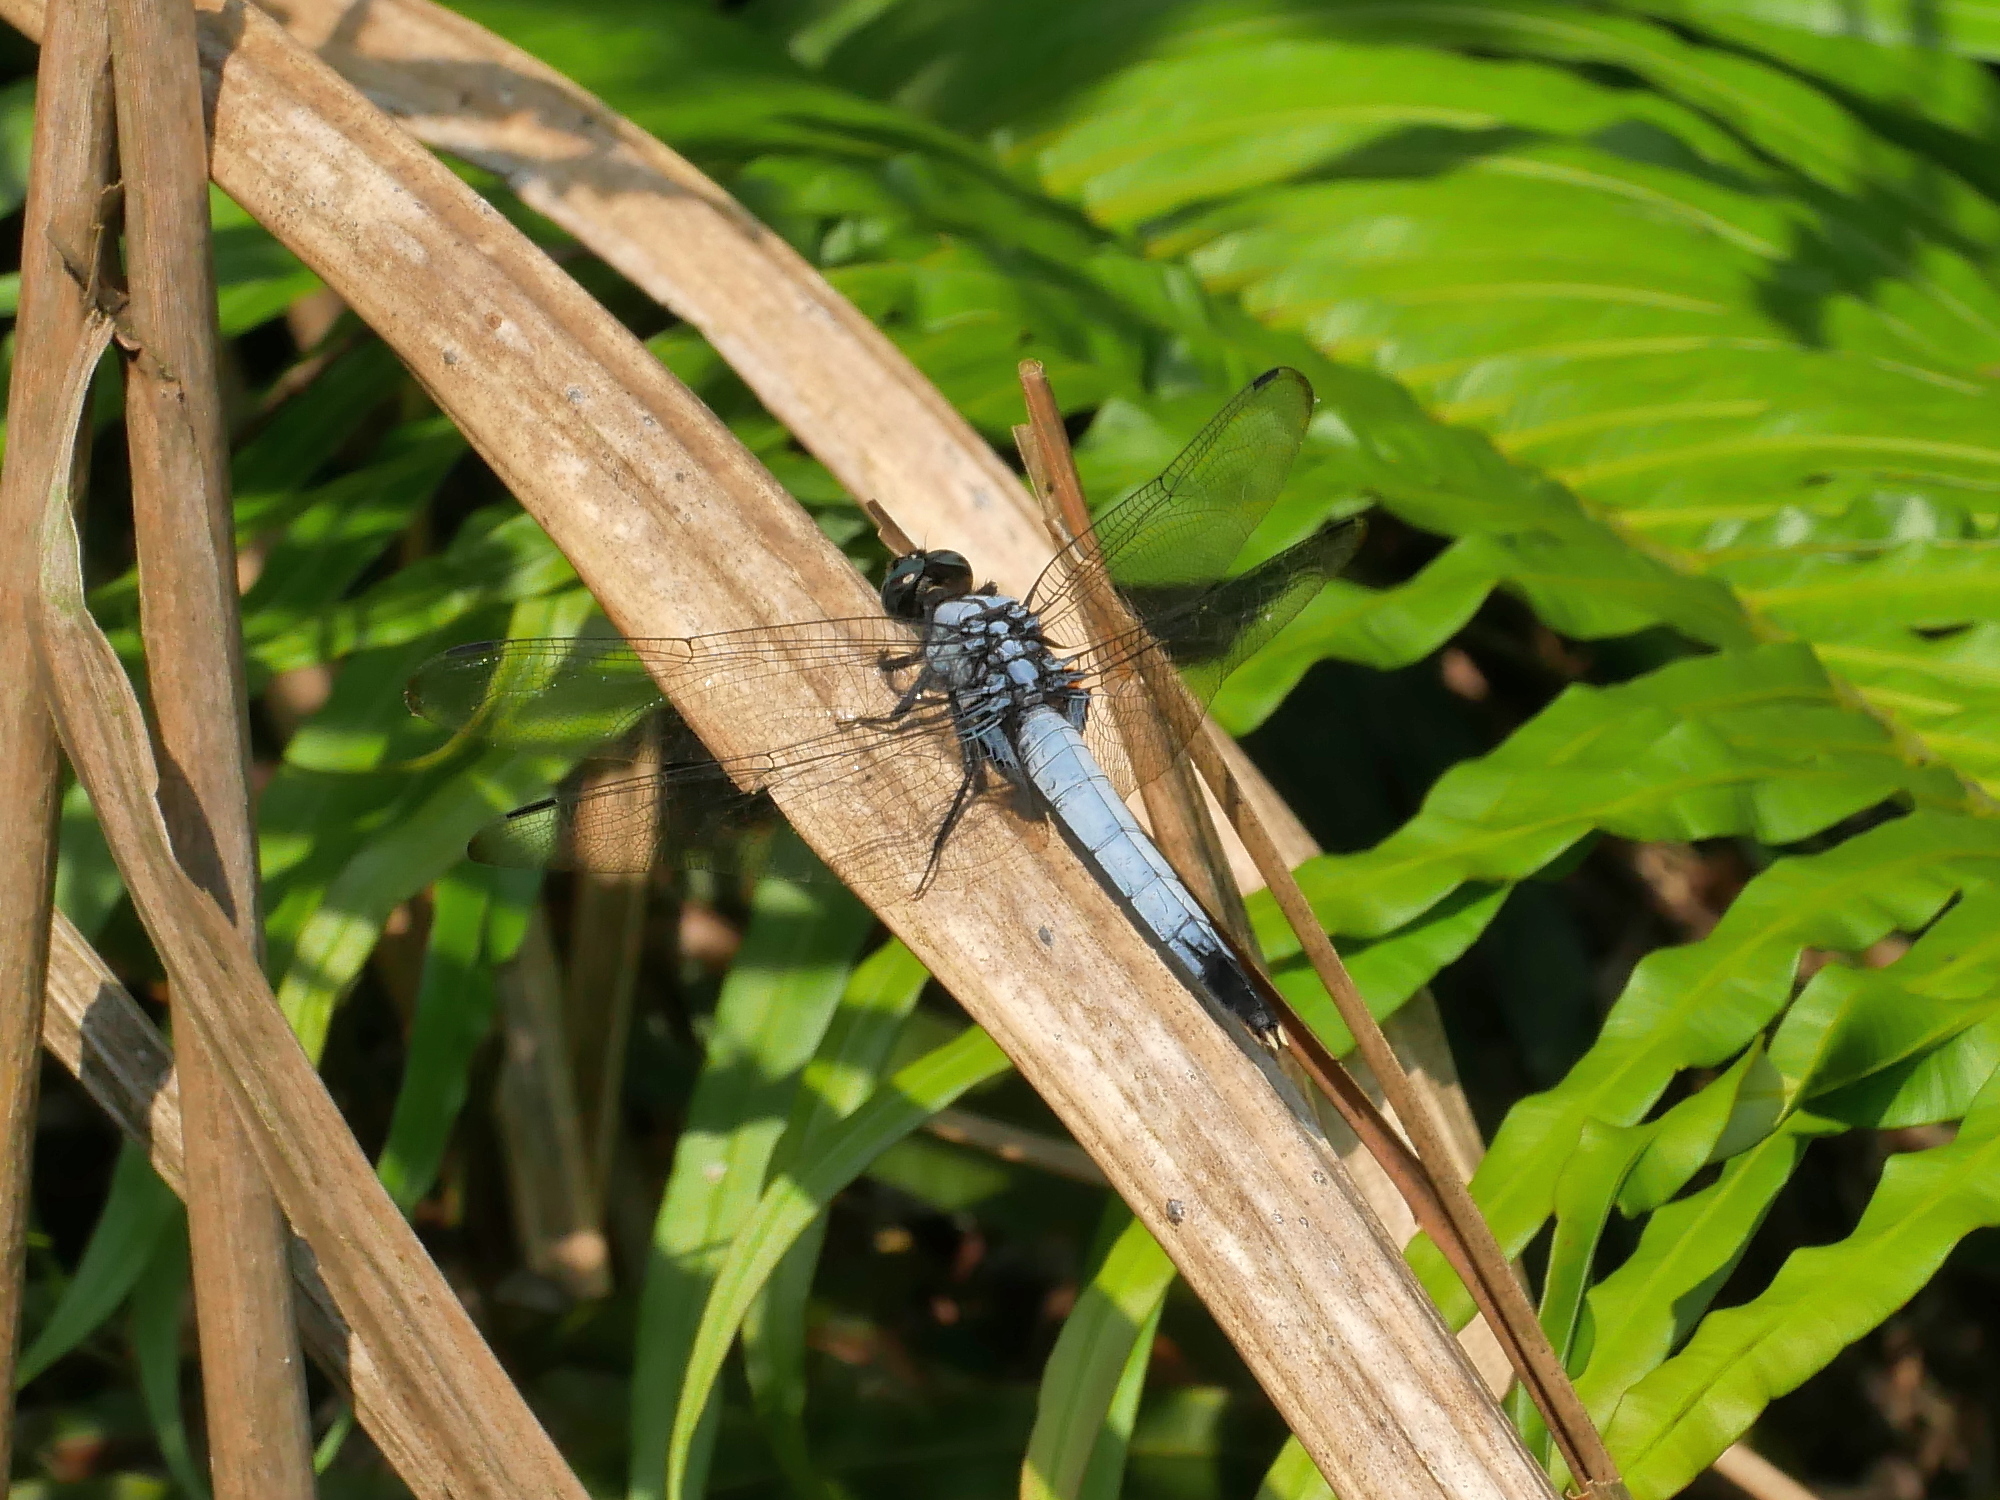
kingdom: Animalia
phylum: Arthropoda
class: Insecta
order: Odonata
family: Libellulidae
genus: Orthetrum
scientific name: Orthetrum melania
